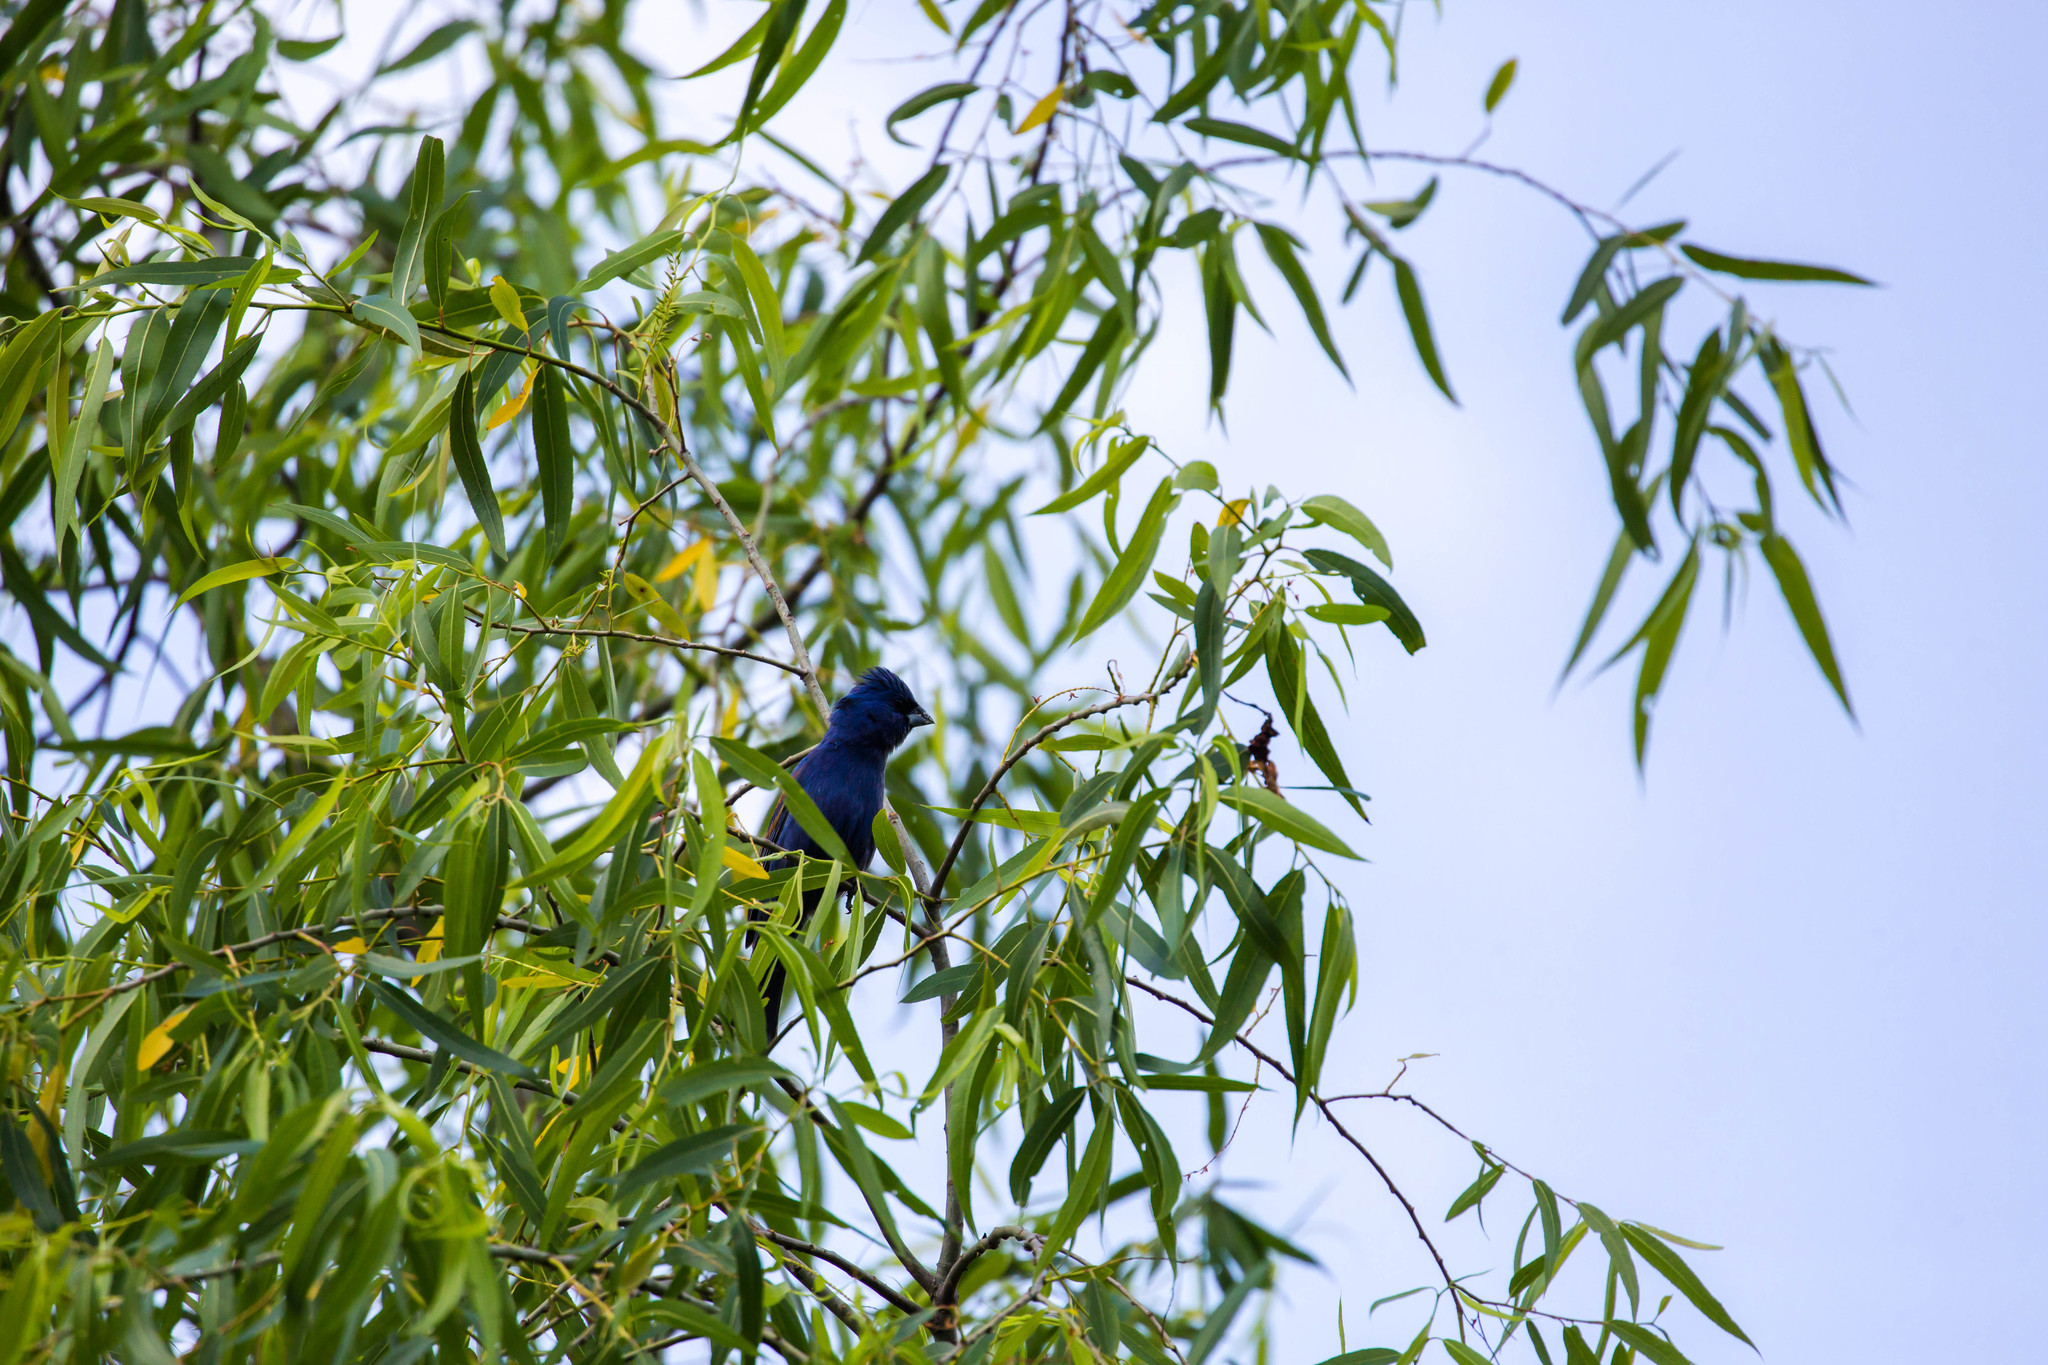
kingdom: Animalia
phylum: Chordata
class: Aves
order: Passeriformes
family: Cardinalidae
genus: Passerina
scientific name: Passerina caerulea
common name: Blue grosbeak
